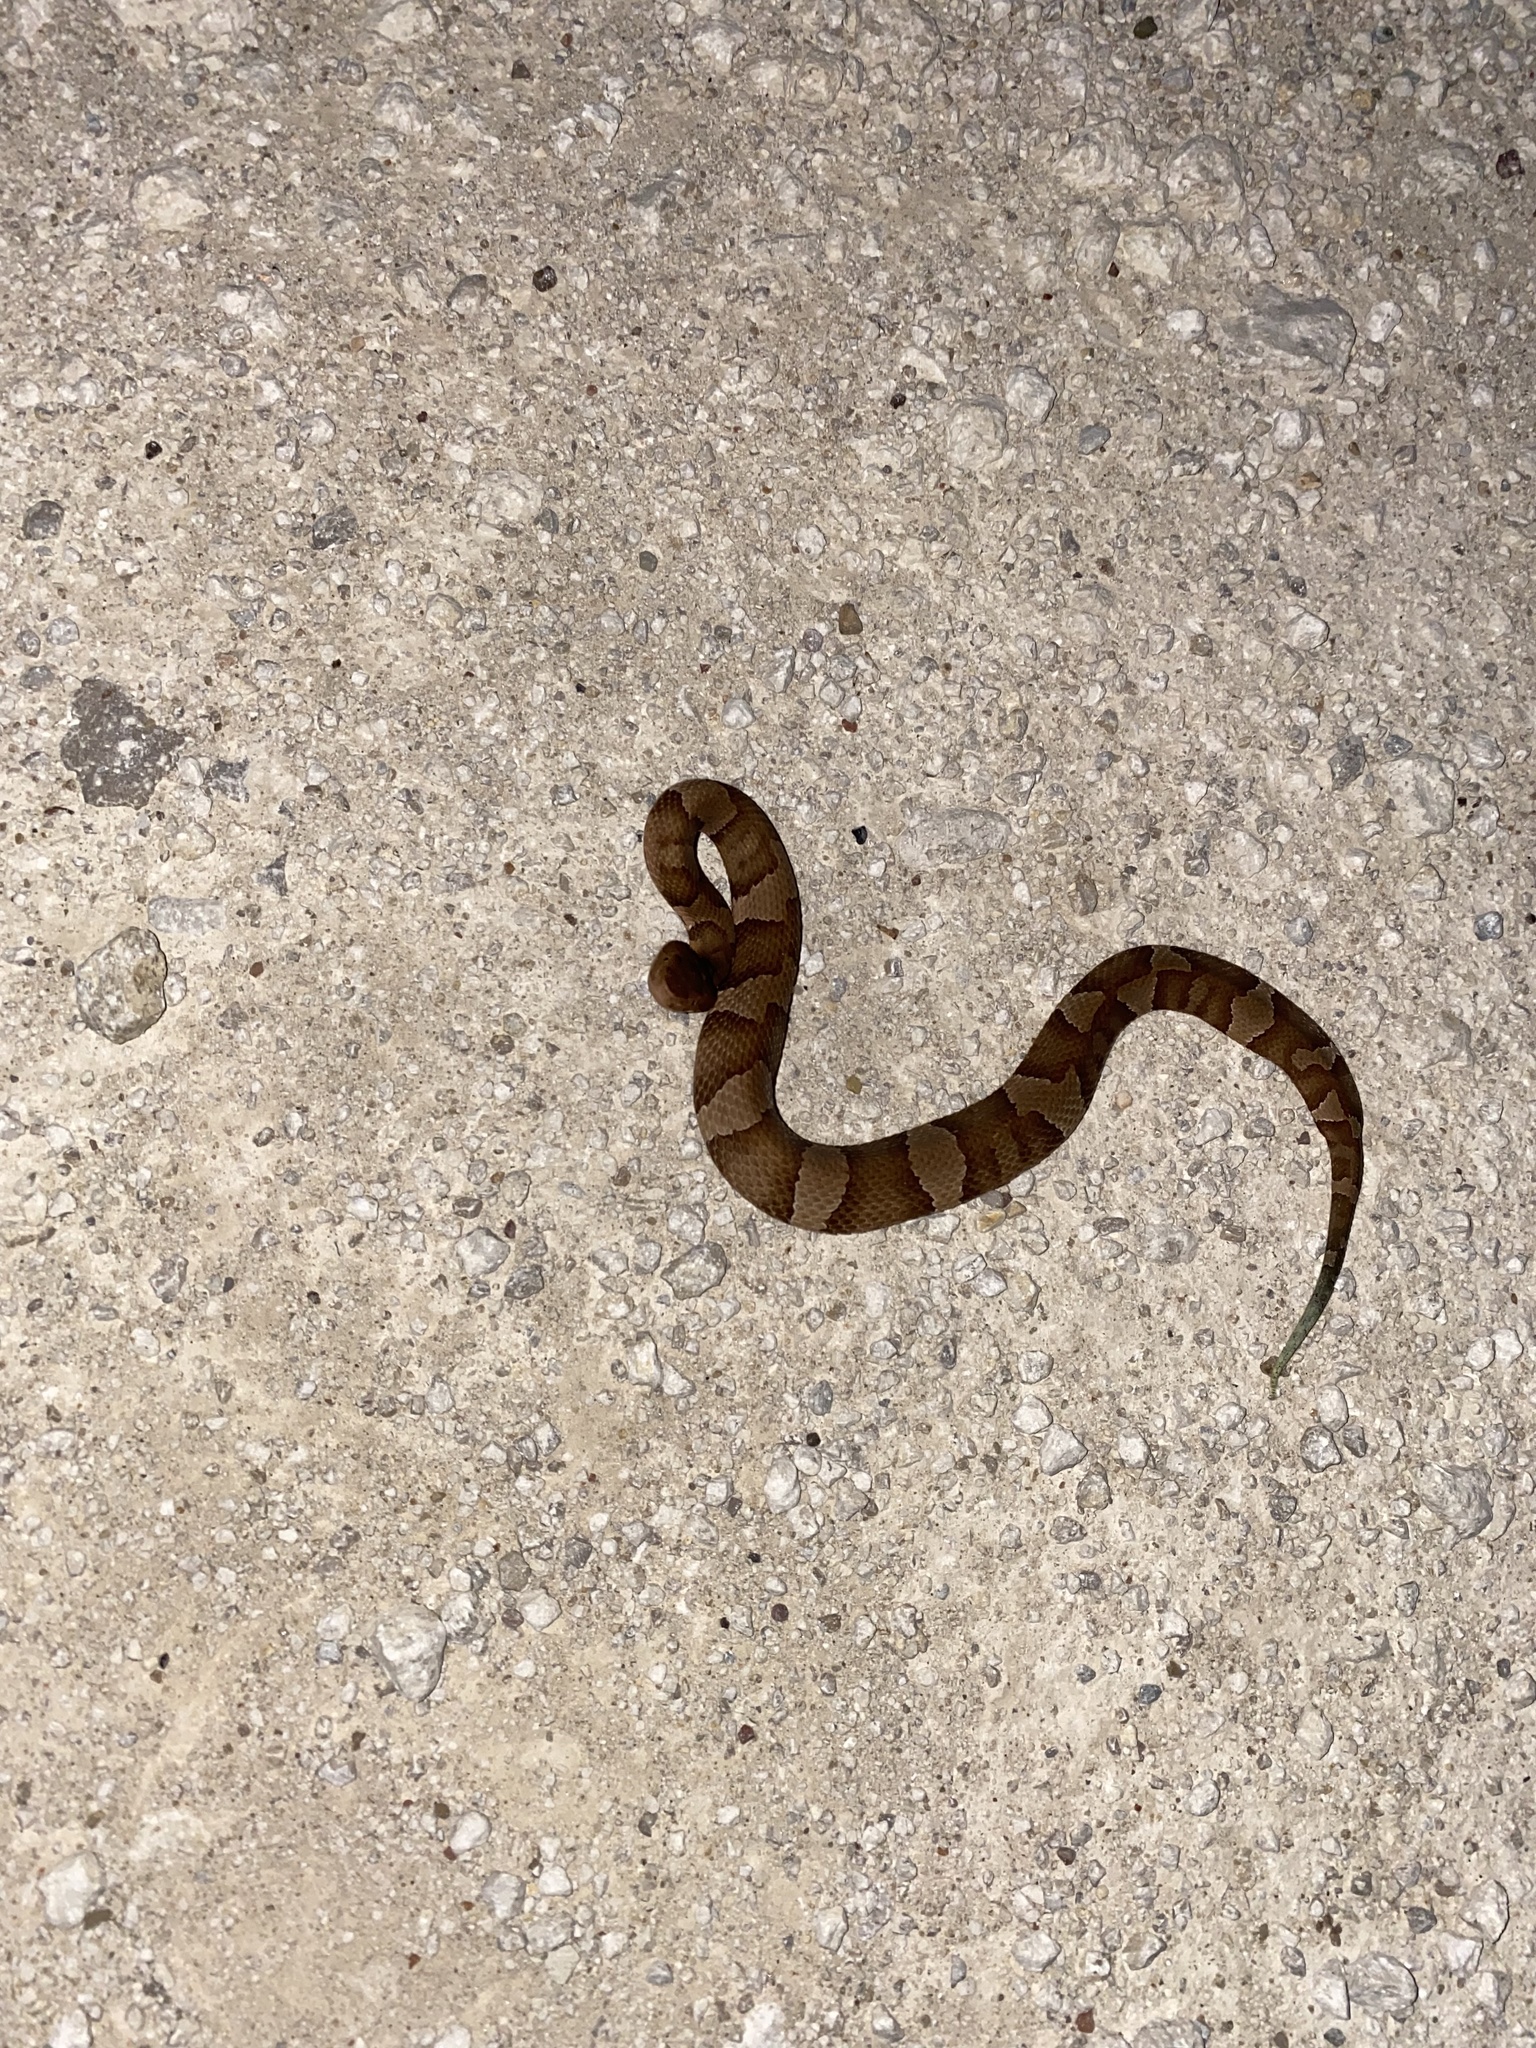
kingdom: Animalia
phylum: Chordata
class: Squamata
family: Viperidae
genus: Agkistrodon
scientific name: Agkistrodon laticinctus
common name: Broad-banded copperhead
